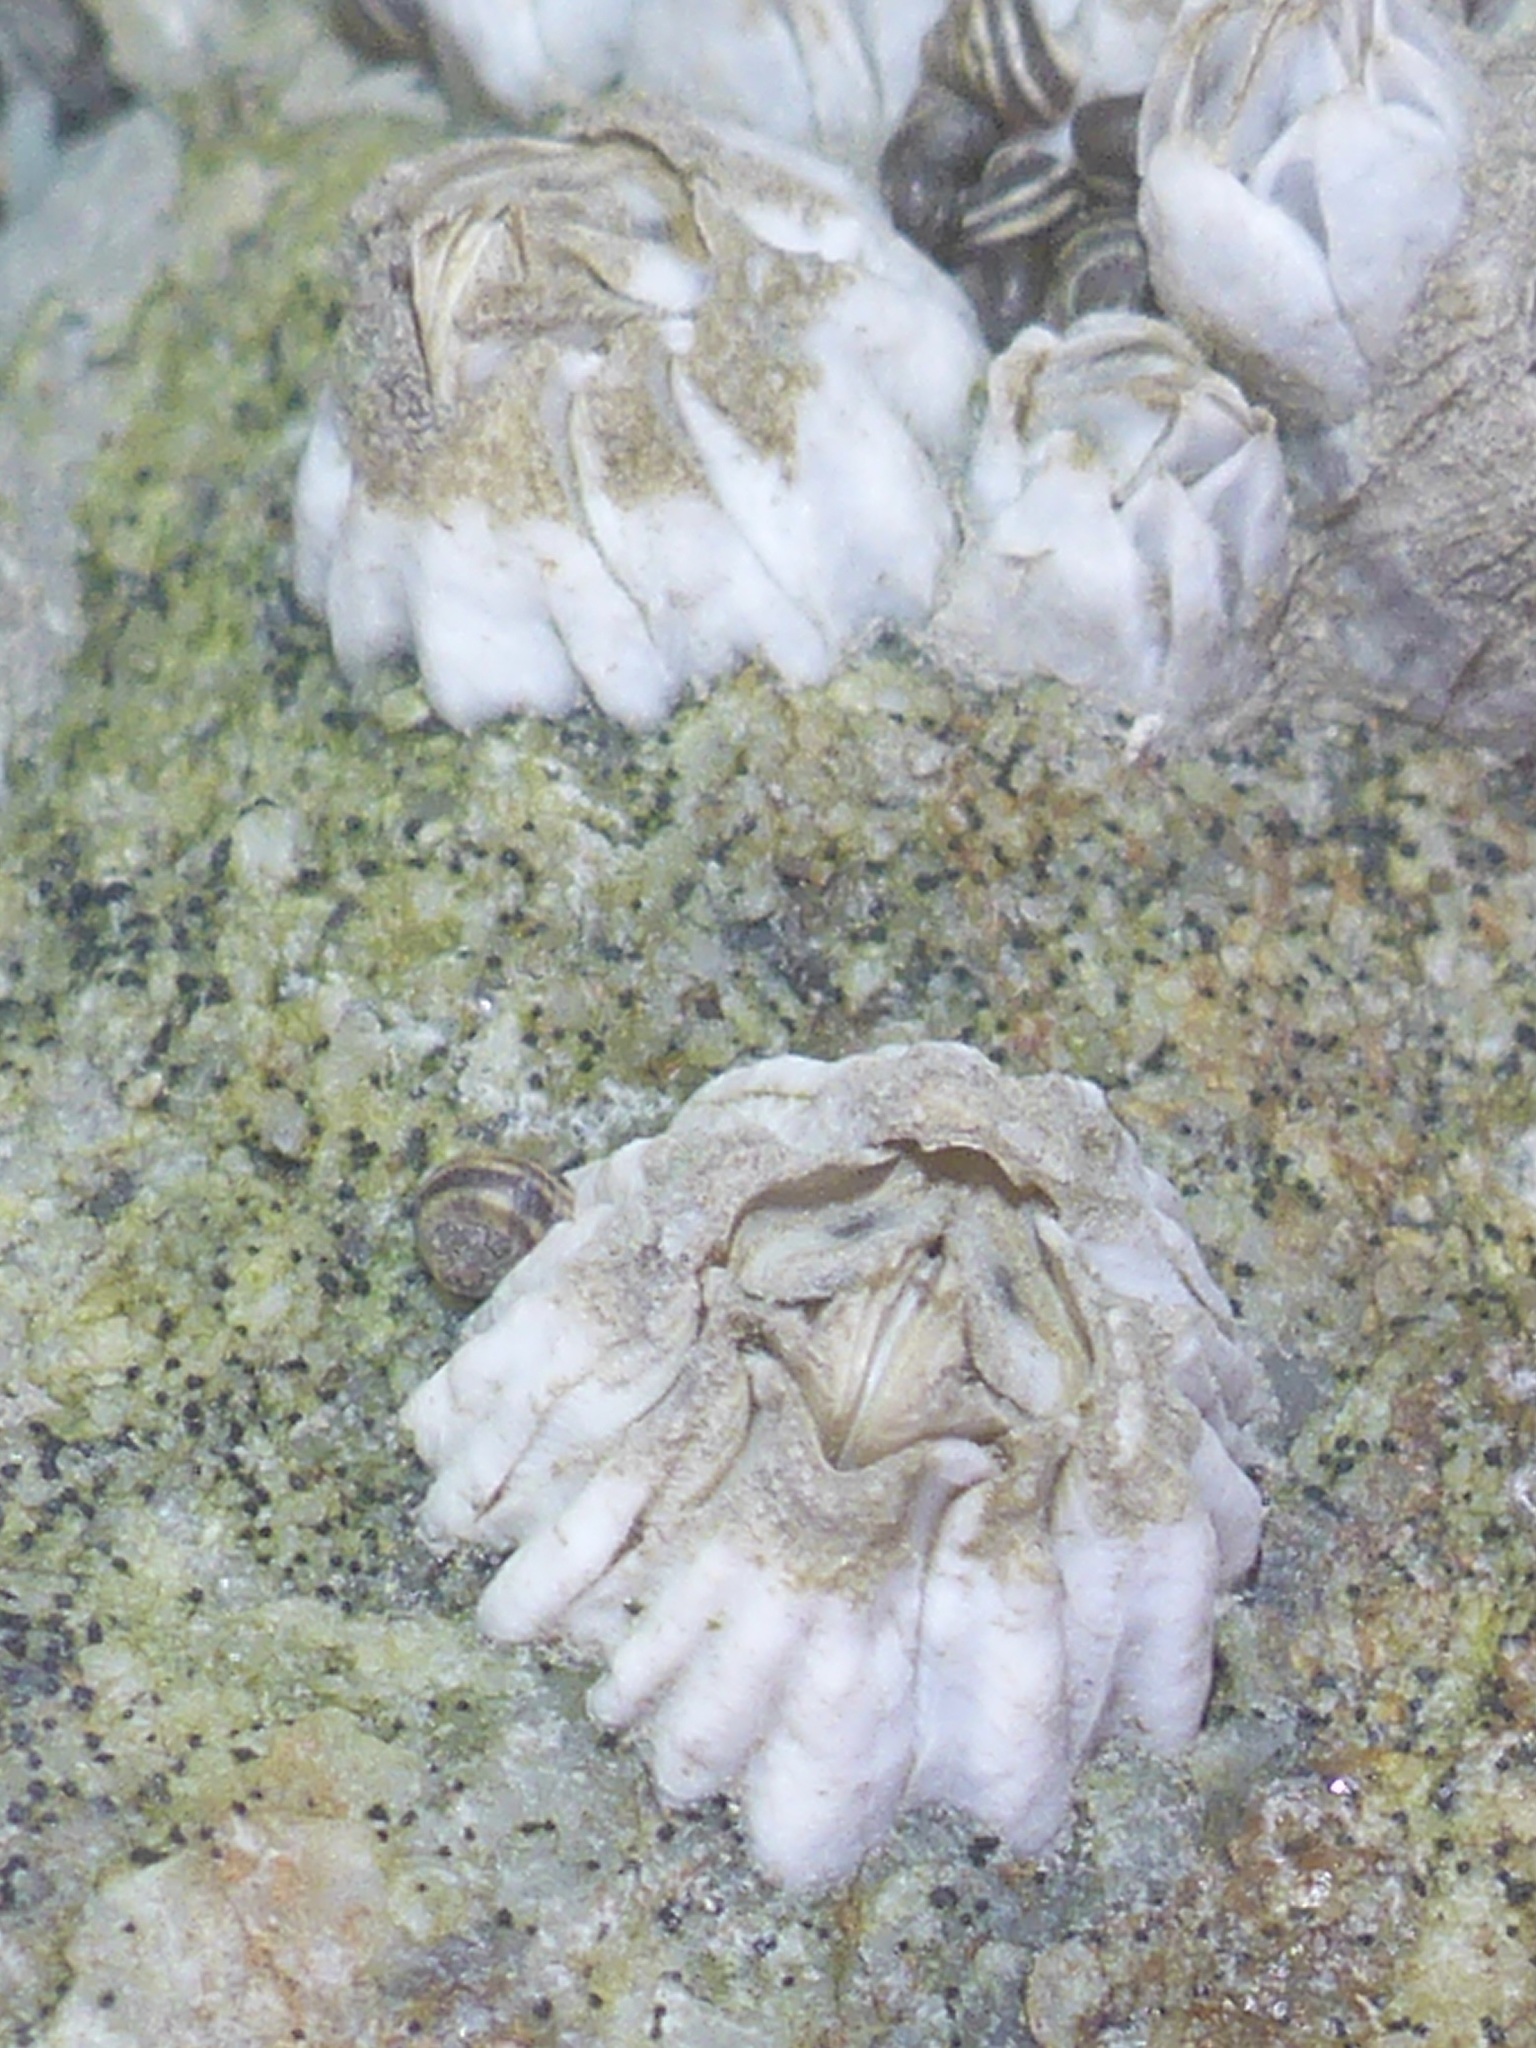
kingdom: Animalia
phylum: Arthropoda
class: Maxillopoda
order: Sessilia
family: Balanidae
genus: Balanus
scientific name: Balanus glandula
